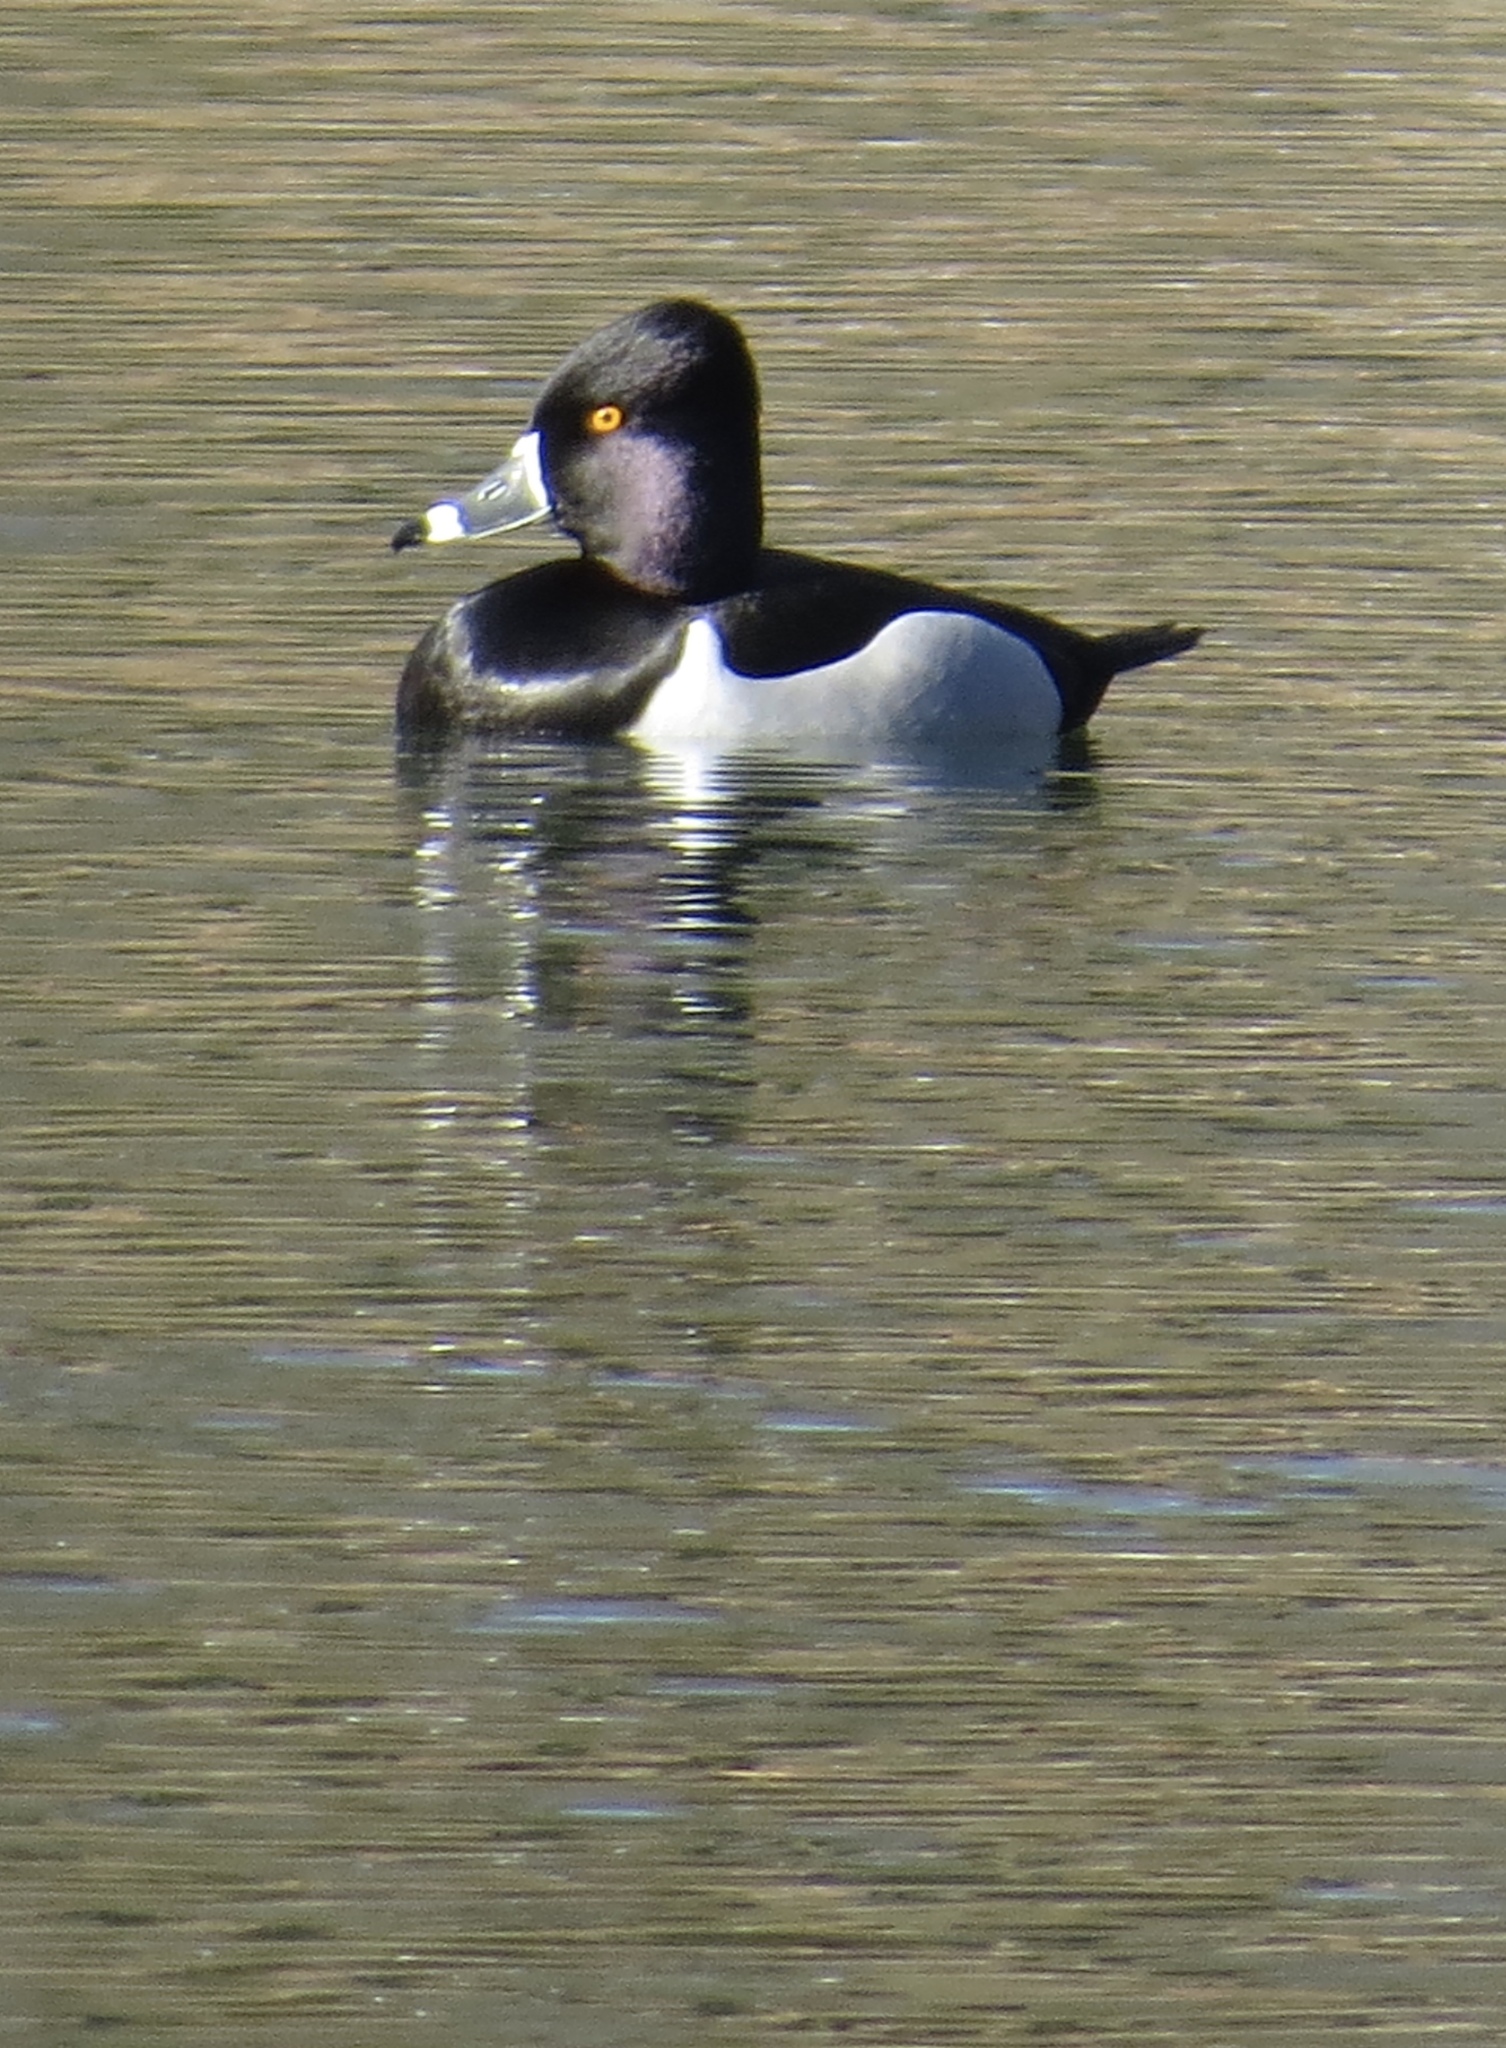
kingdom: Animalia
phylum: Chordata
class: Aves
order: Anseriformes
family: Anatidae
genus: Aythya
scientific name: Aythya collaris
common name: Ring-necked duck
